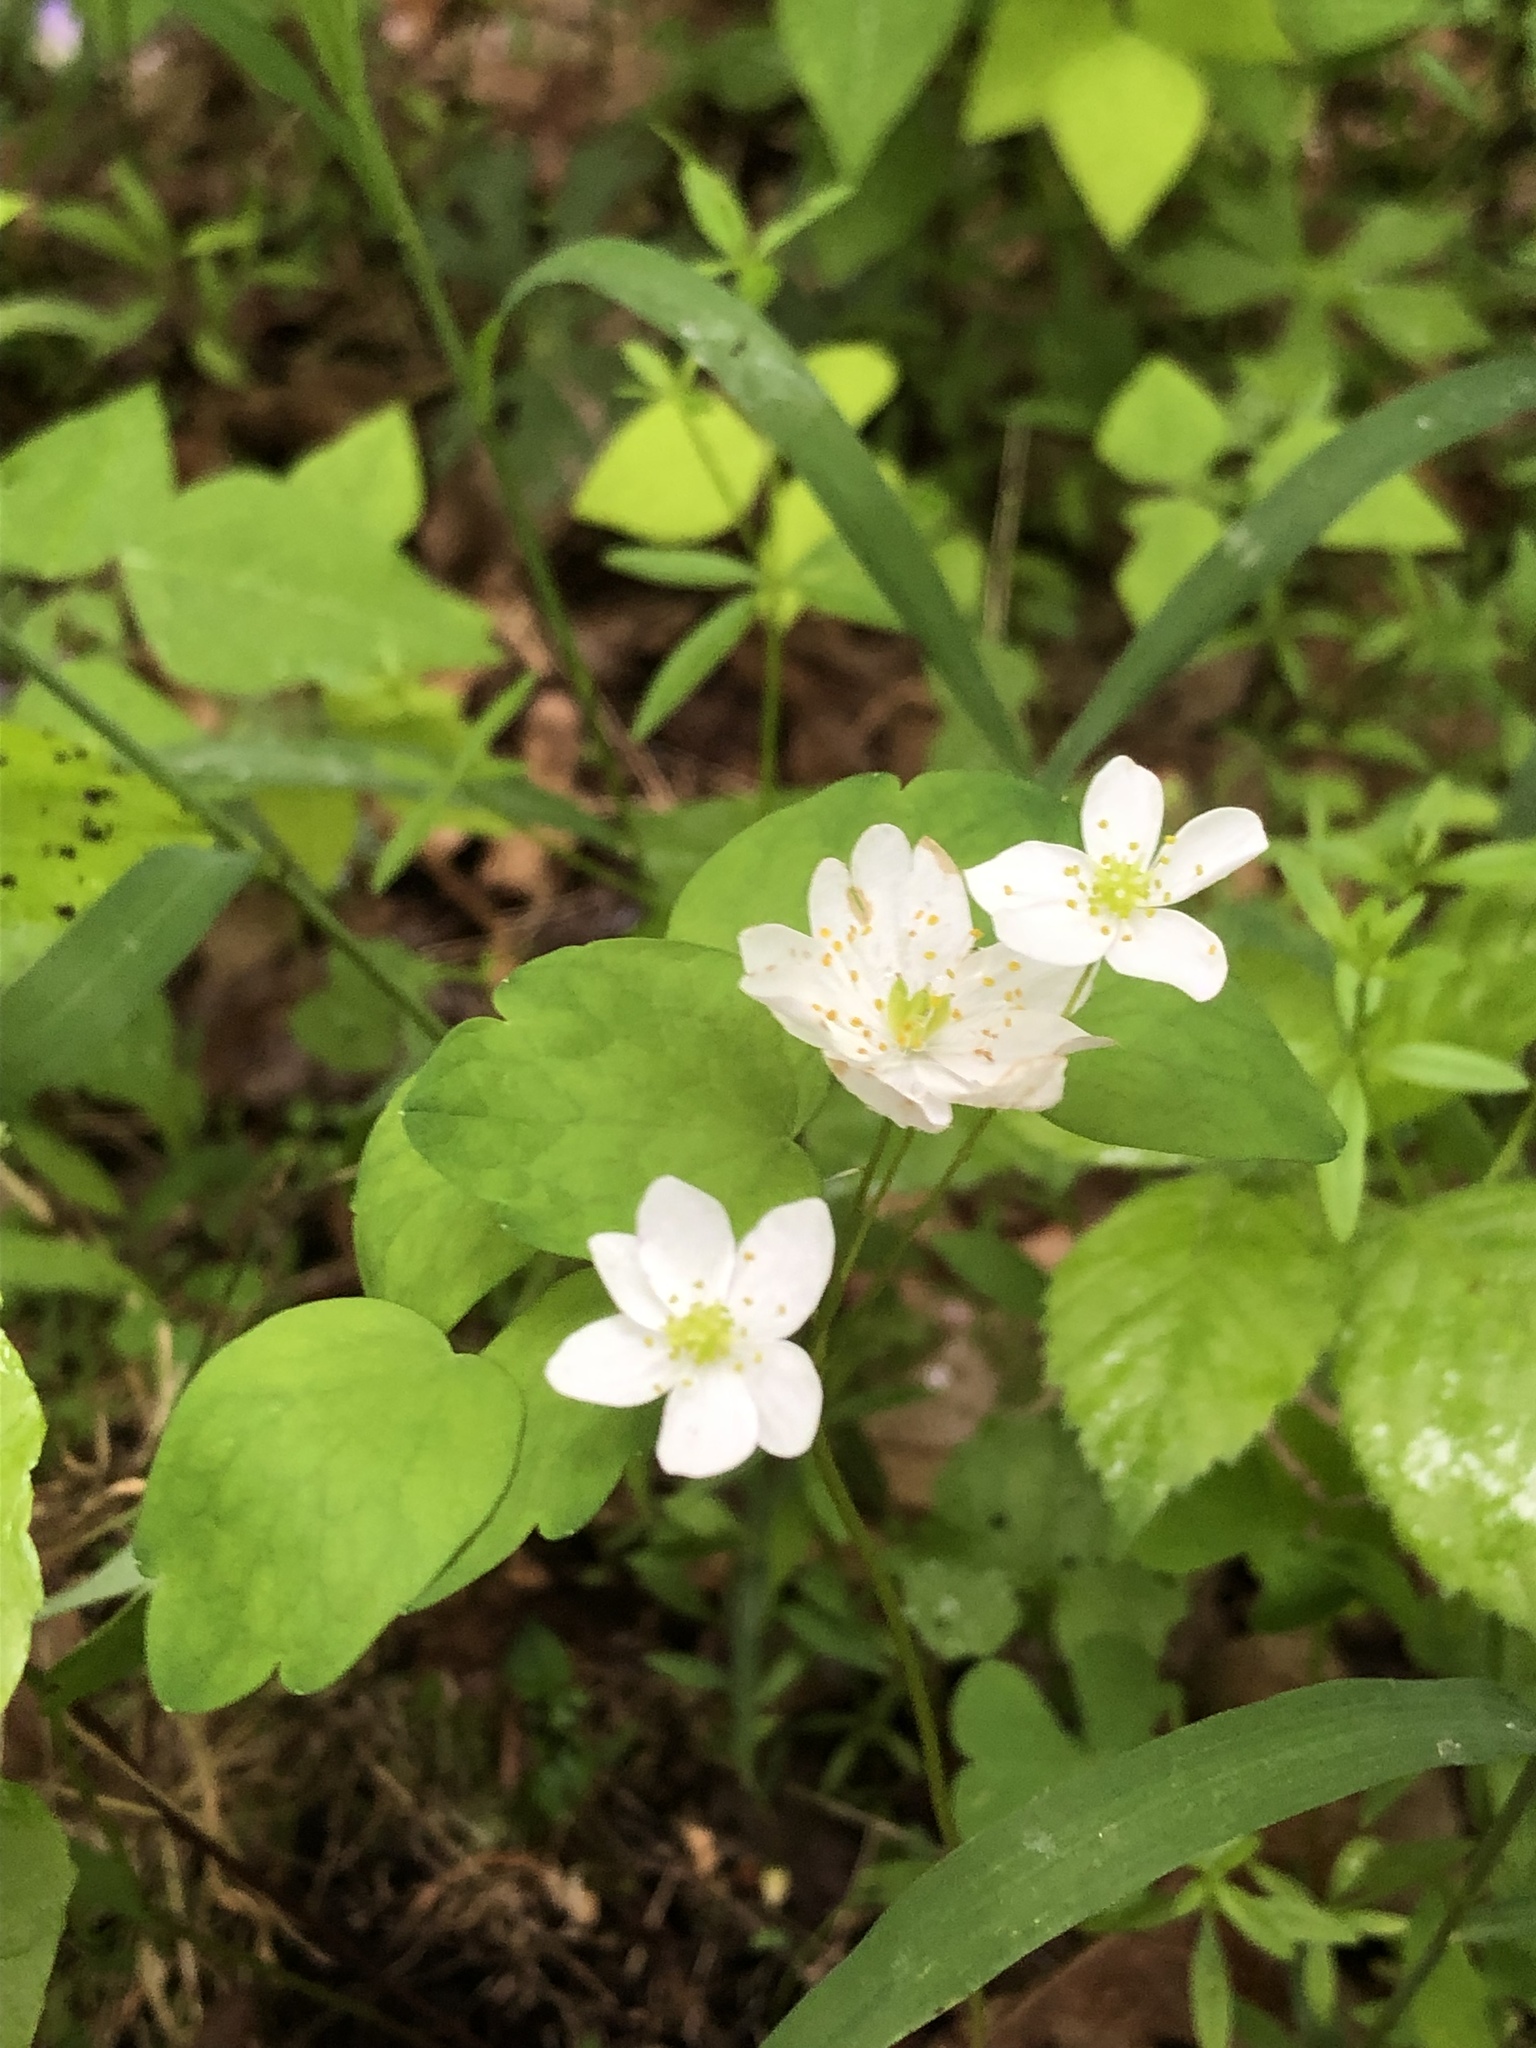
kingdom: Plantae
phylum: Tracheophyta
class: Magnoliopsida
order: Ranunculales
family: Ranunculaceae
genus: Thalictrum
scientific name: Thalictrum thalictroides
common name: Rue-anemone
